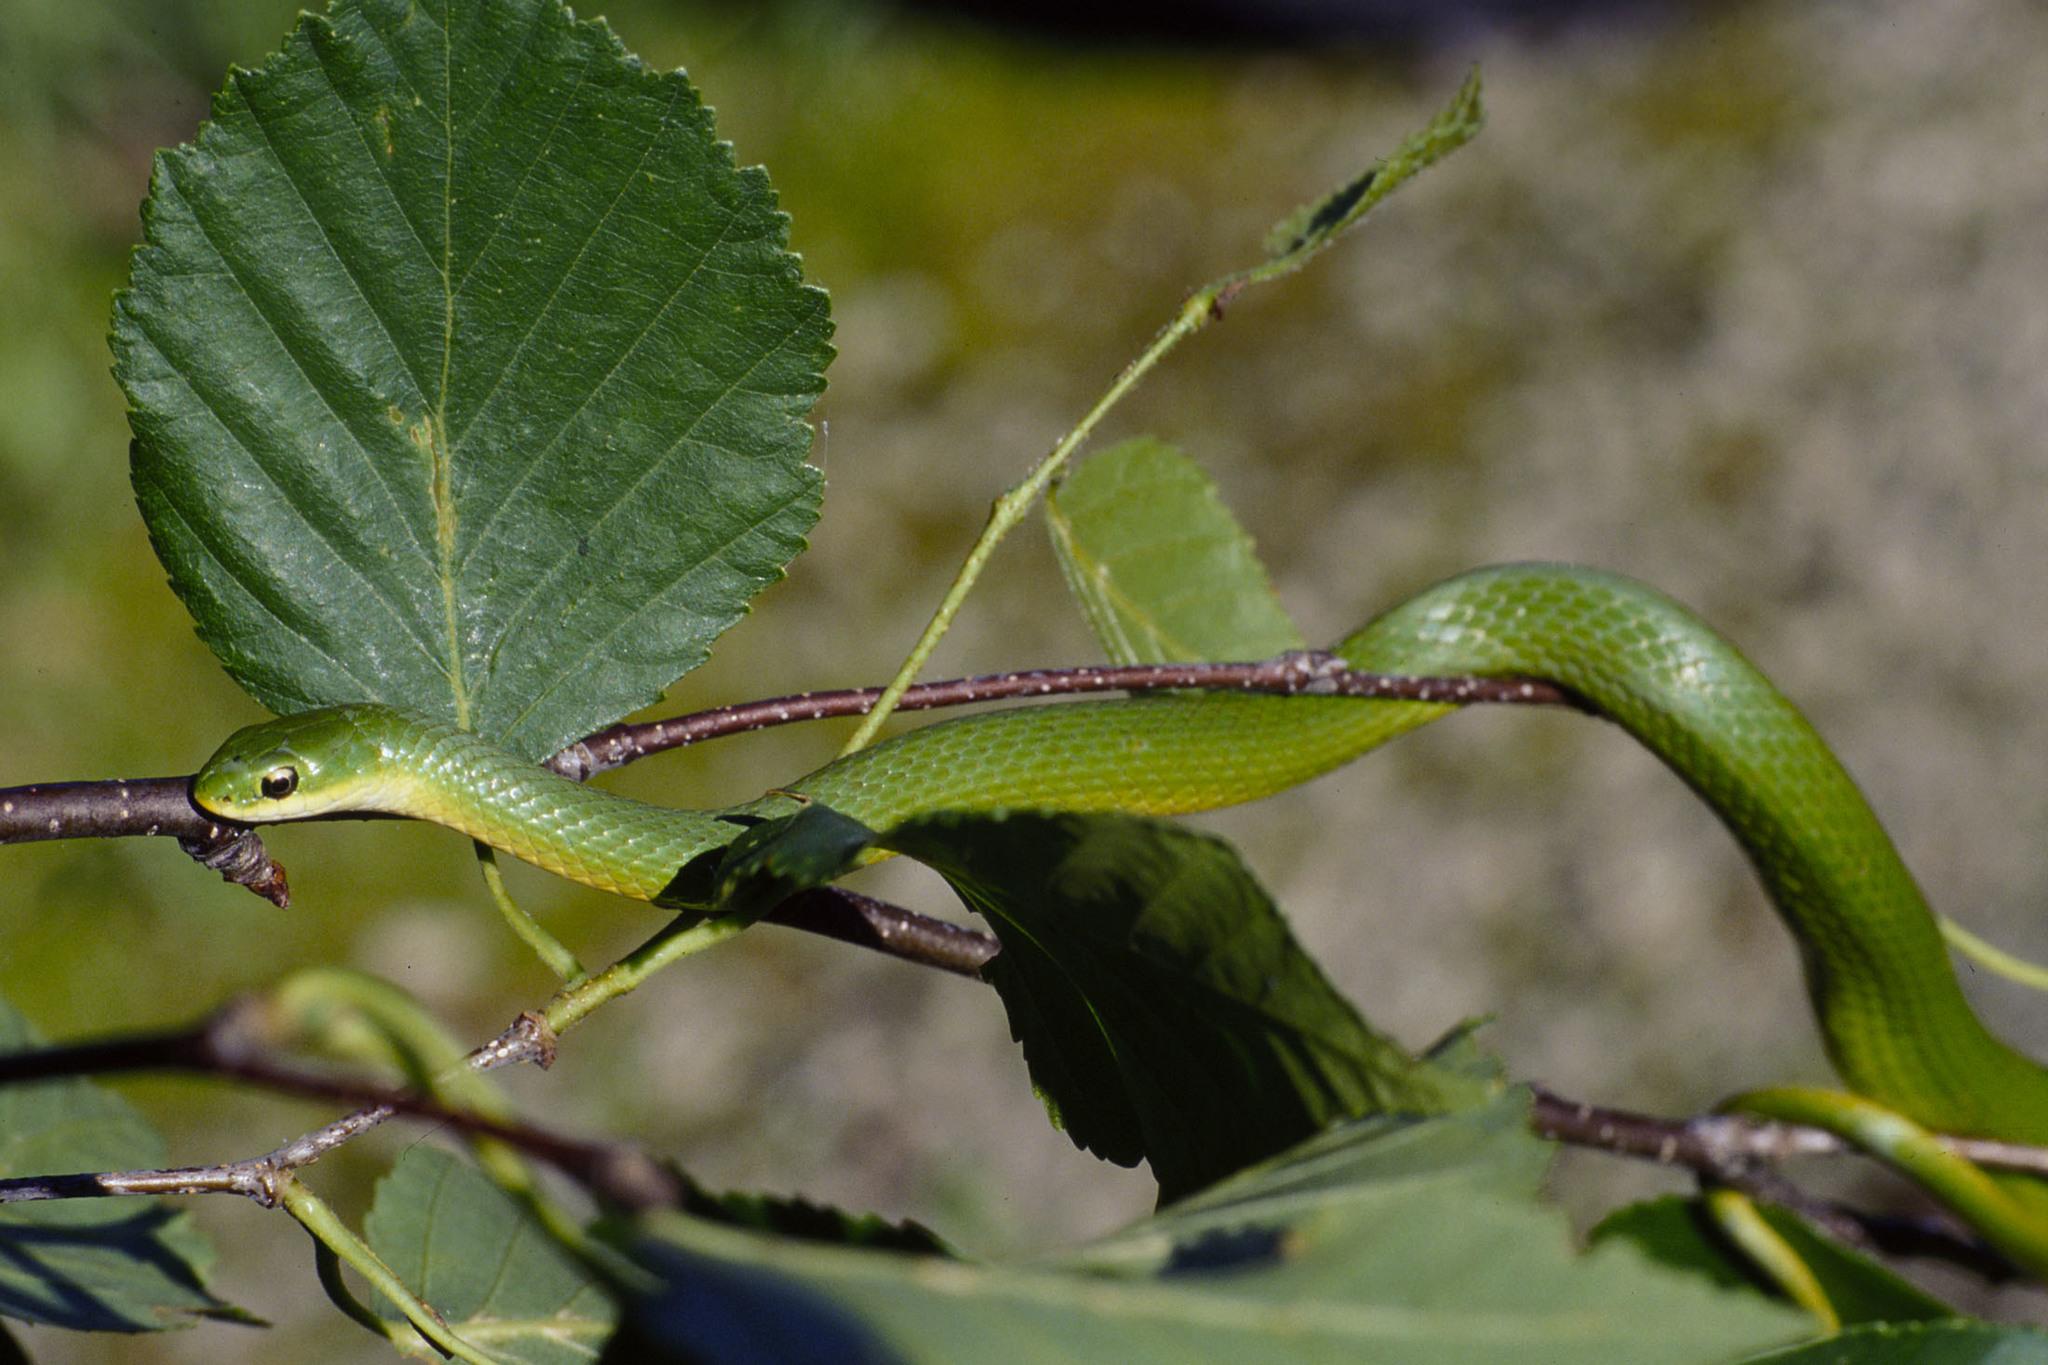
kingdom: Animalia
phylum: Chordata
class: Squamata
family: Colubridae
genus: Opheodrys
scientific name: Opheodrys vernalis
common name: Smooth green snake
